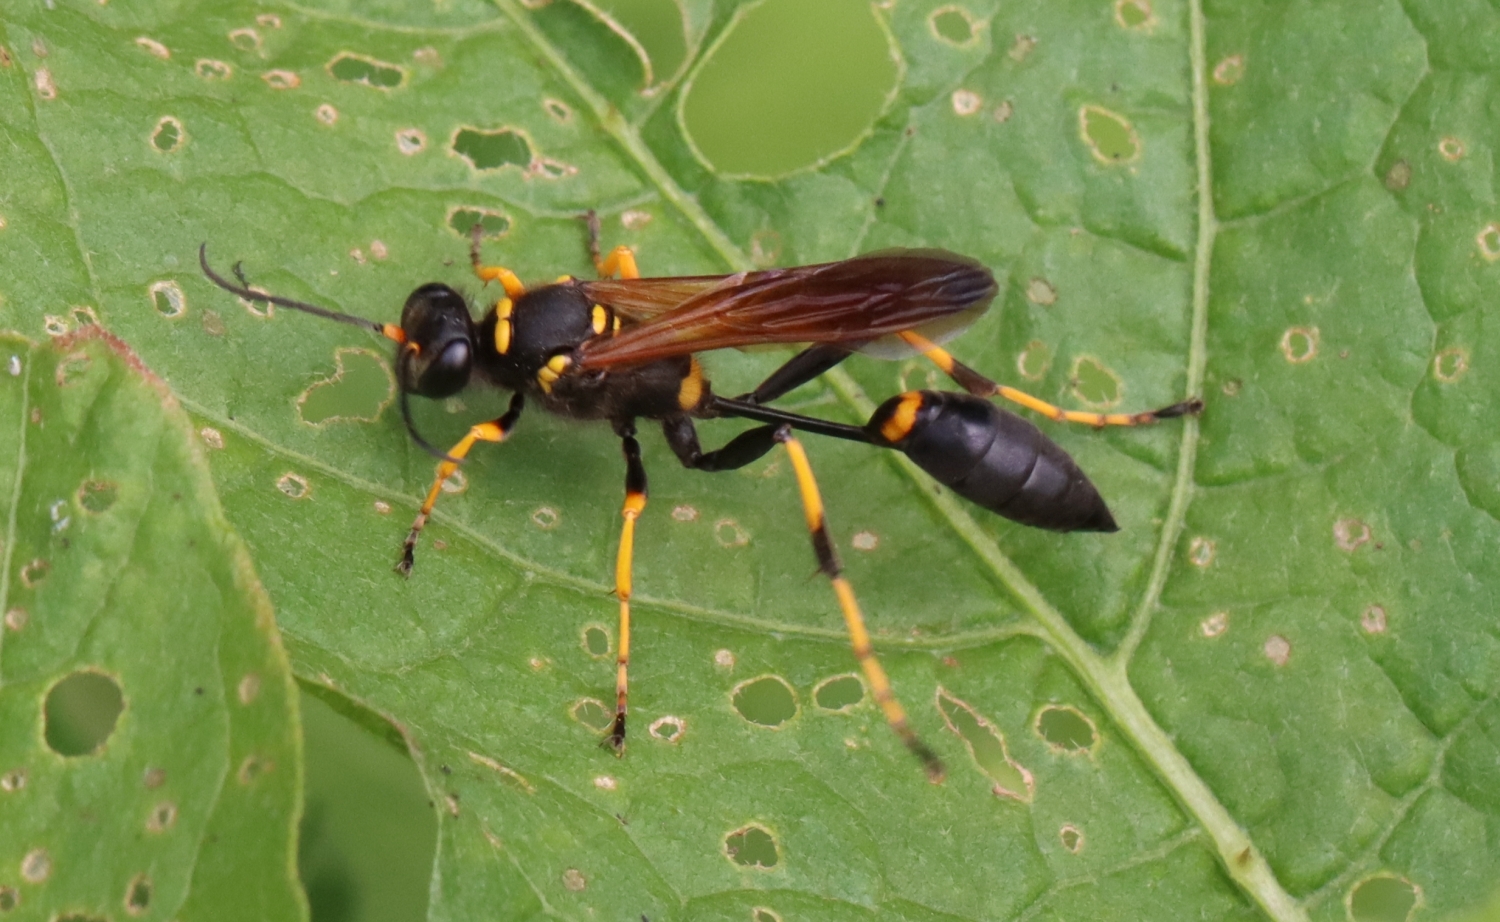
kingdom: Animalia
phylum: Arthropoda
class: Insecta
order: Hymenoptera
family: Sphecidae
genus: Sceliphron
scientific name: Sceliphron caementarium
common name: Mud dauber
